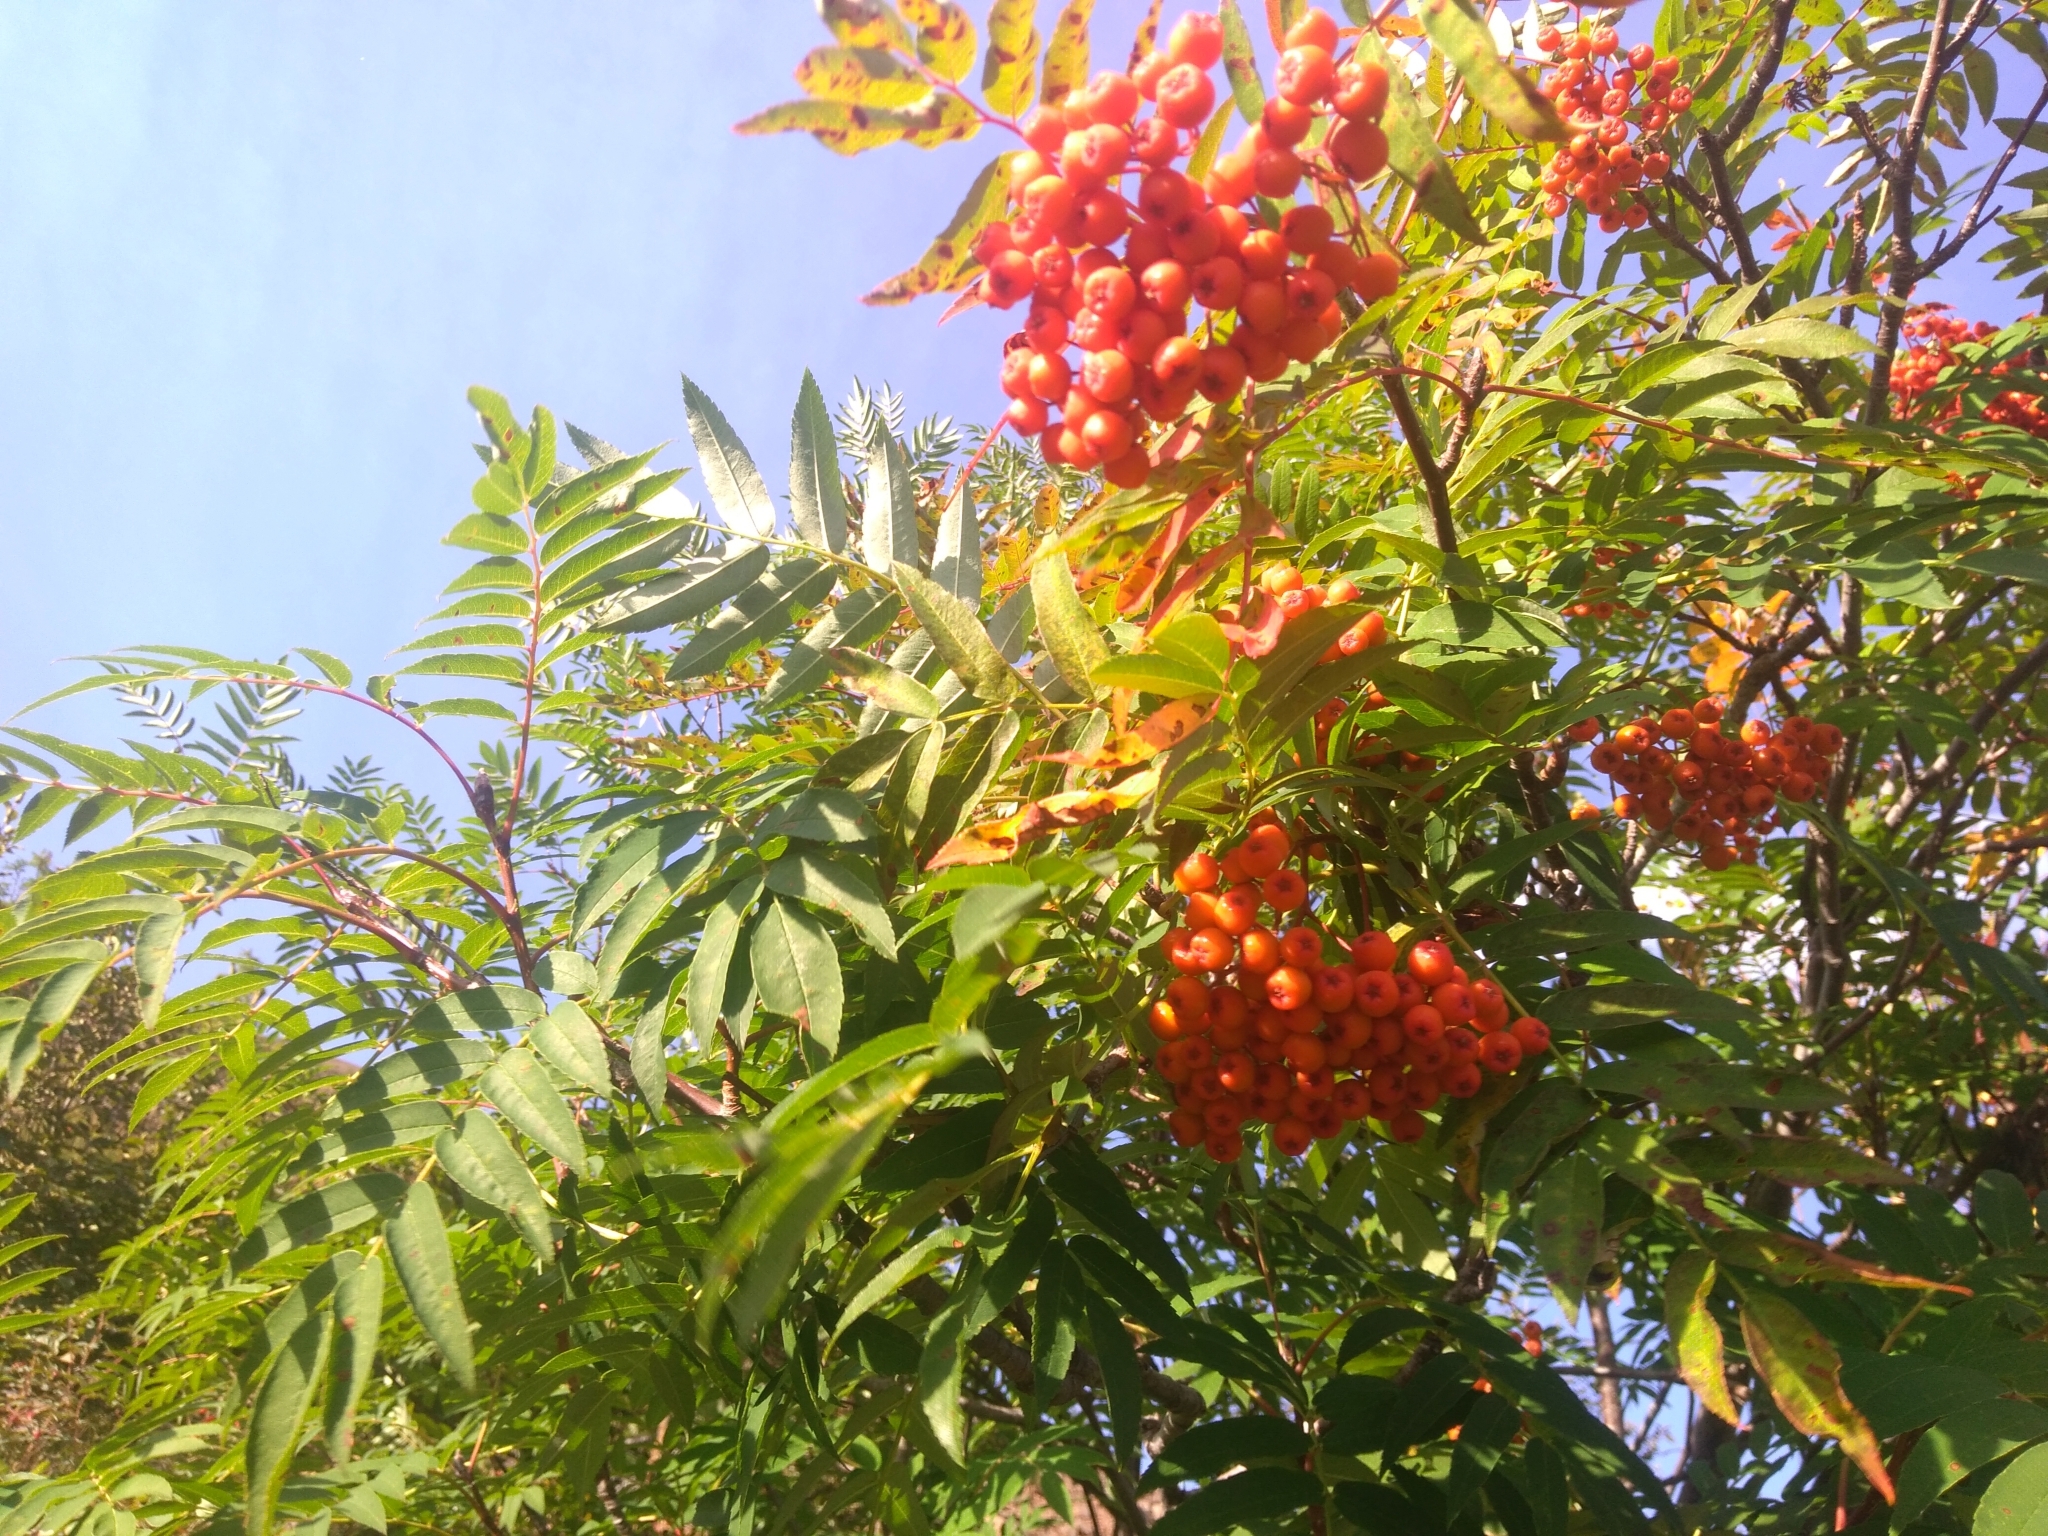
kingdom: Plantae
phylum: Tracheophyta
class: Magnoliopsida
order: Rosales
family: Rosaceae
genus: Sorbus
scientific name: Sorbus aucuparia
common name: Rowan
